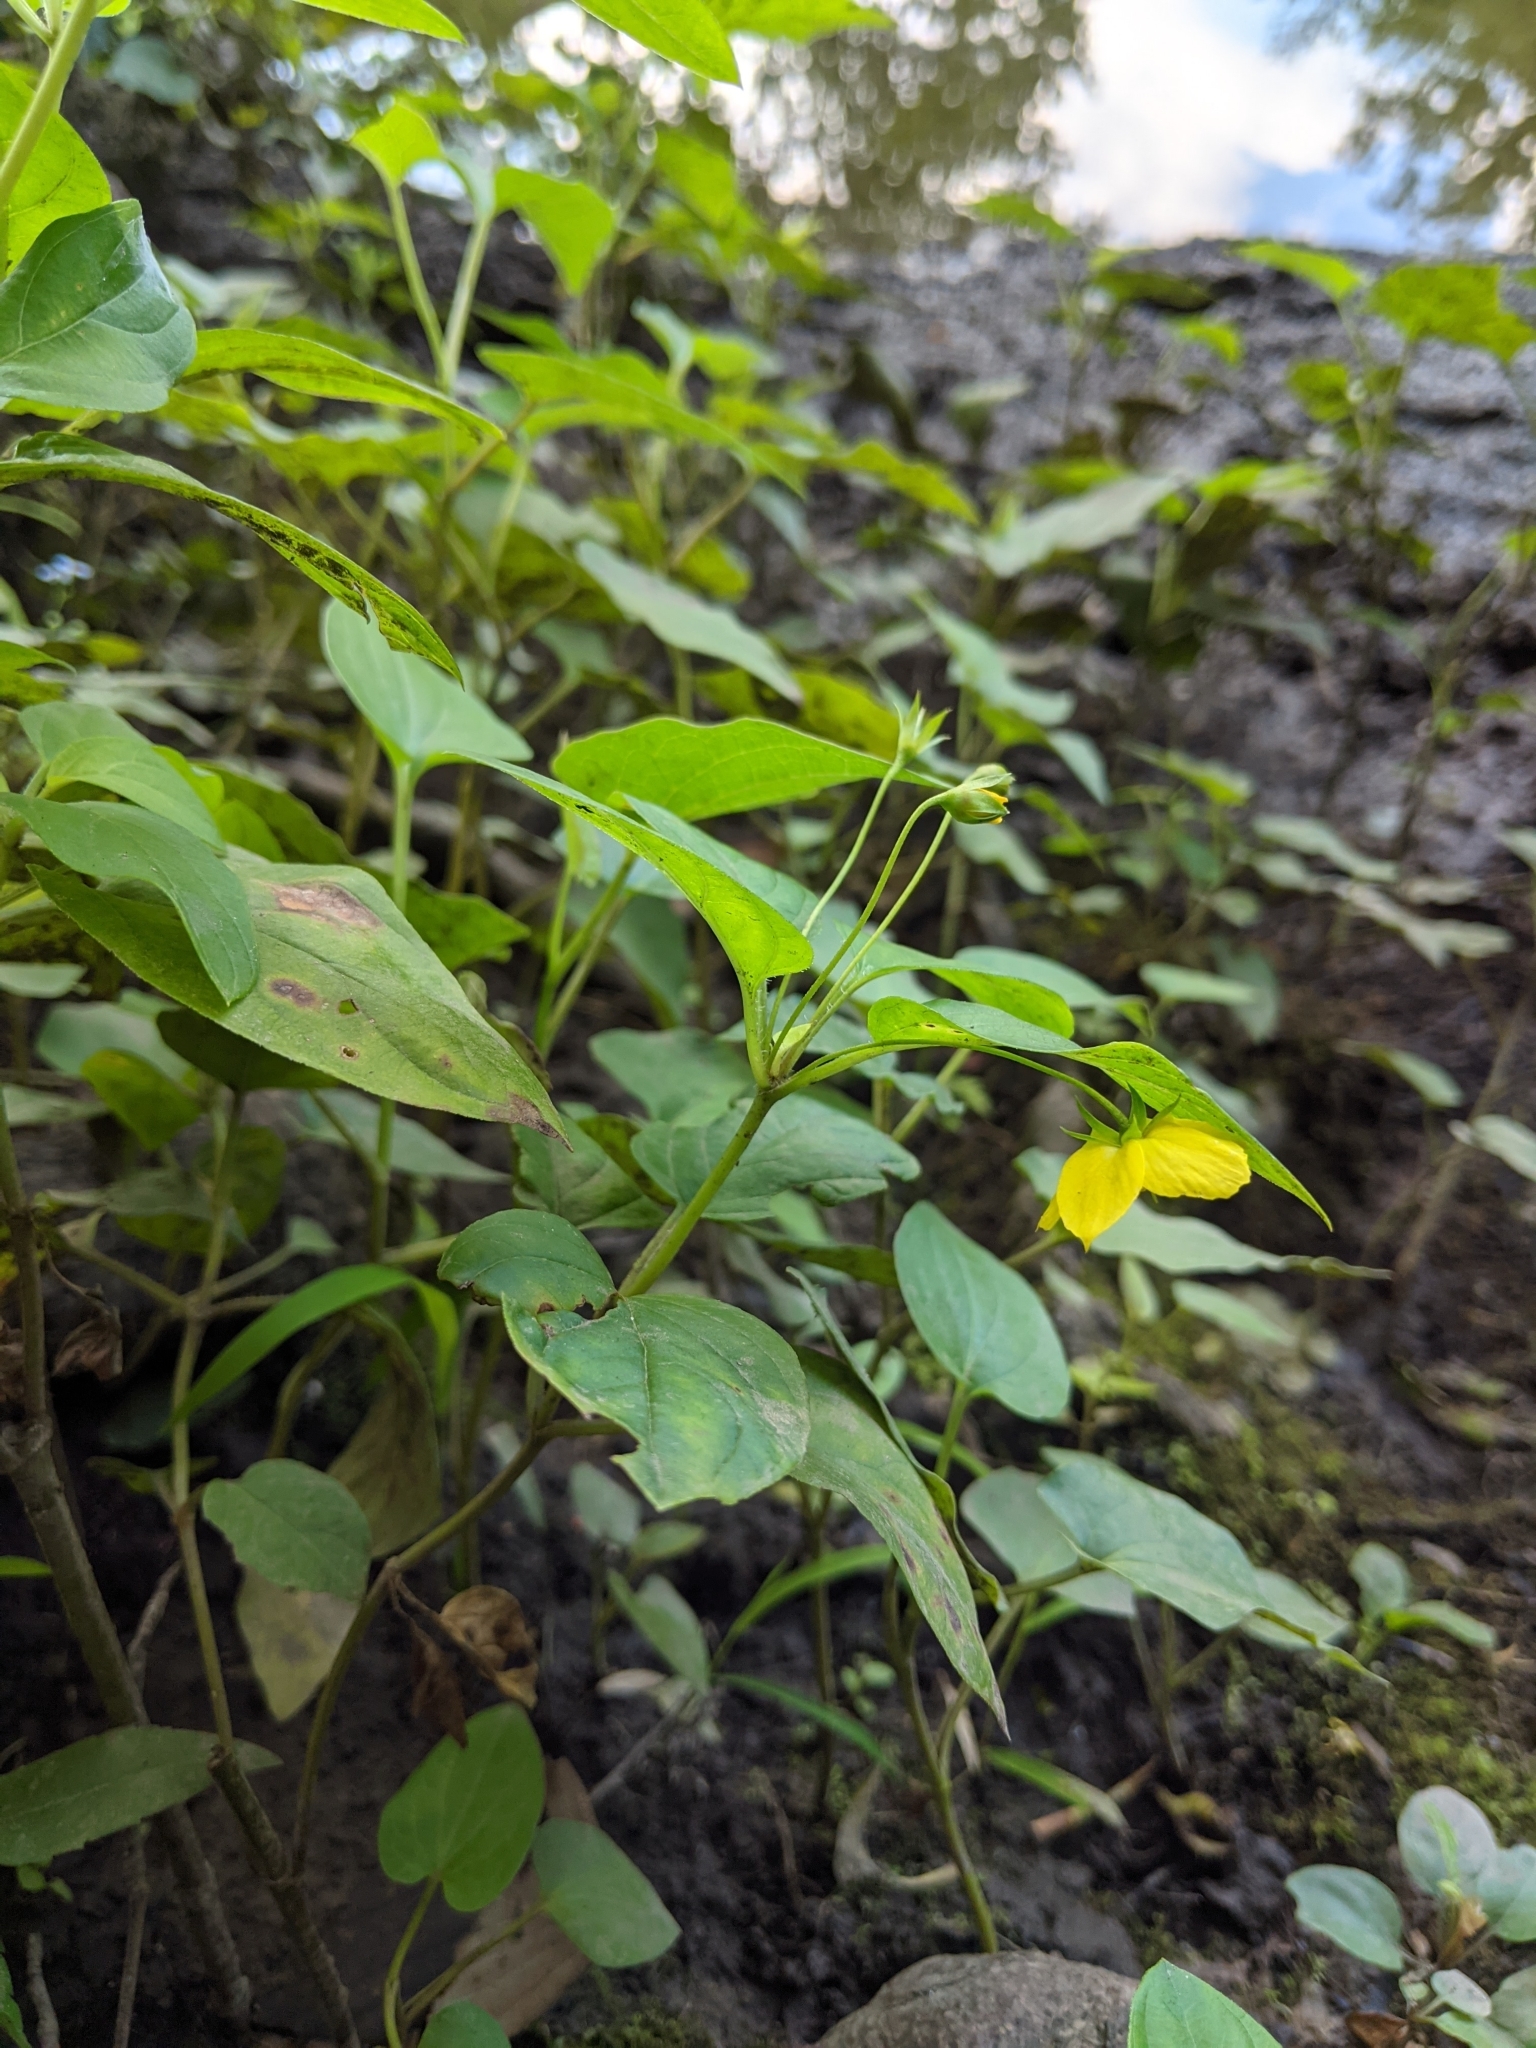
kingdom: Plantae
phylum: Tracheophyta
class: Magnoliopsida
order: Ericales
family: Primulaceae
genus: Lysimachia
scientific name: Lysimachia ciliata
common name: Fringed loosestrife
